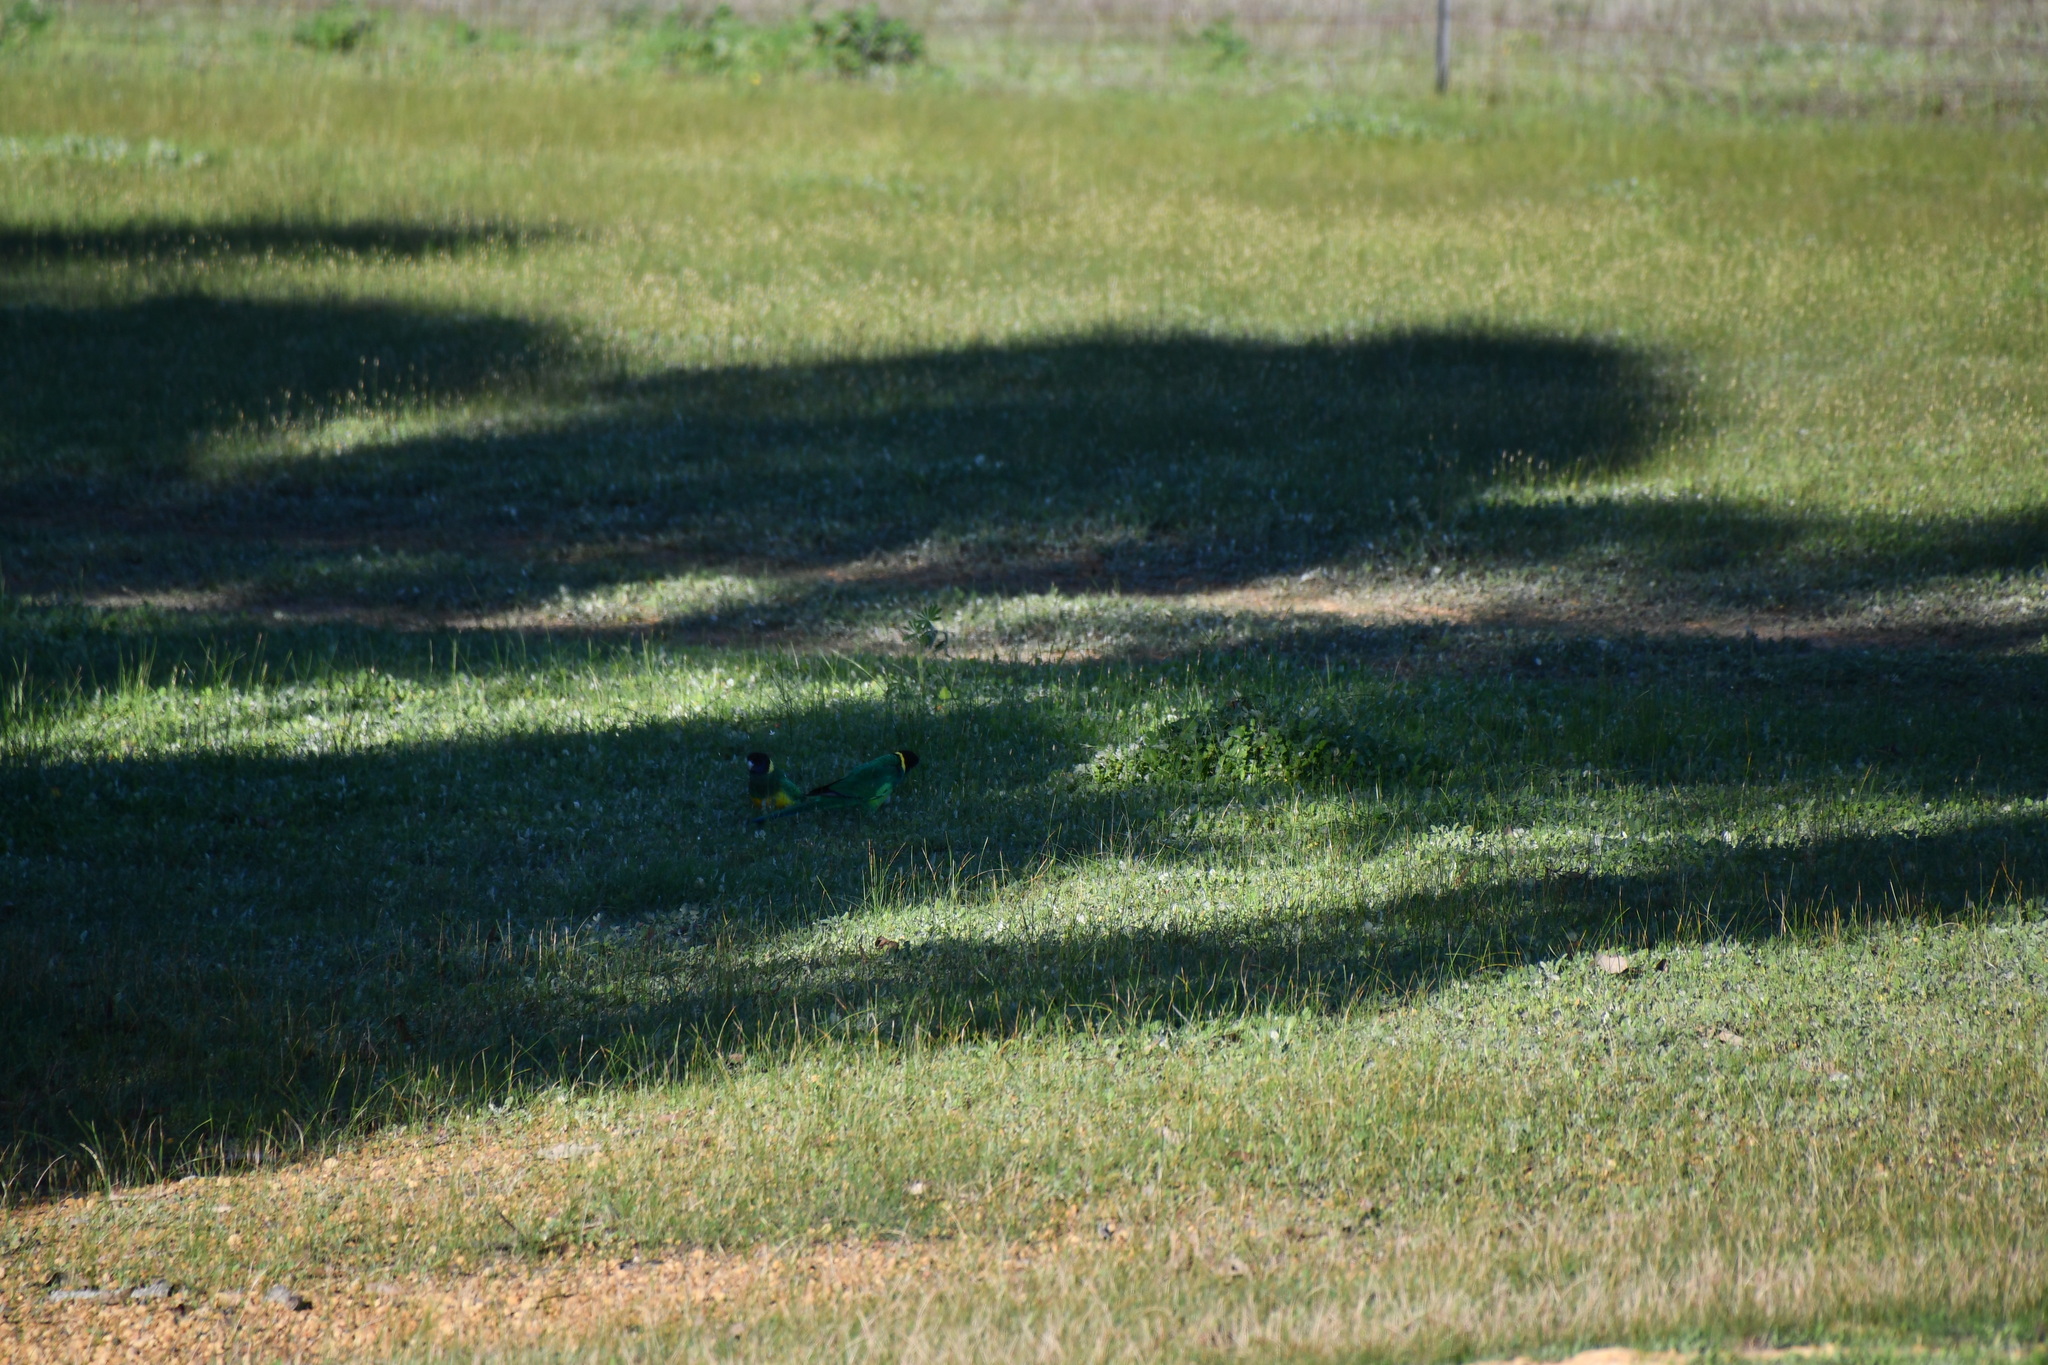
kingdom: Animalia
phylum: Chordata
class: Aves
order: Psittaciformes
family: Psittacidae
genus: Barnardius
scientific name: Barnardius zonarius
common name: Australian ringneck
